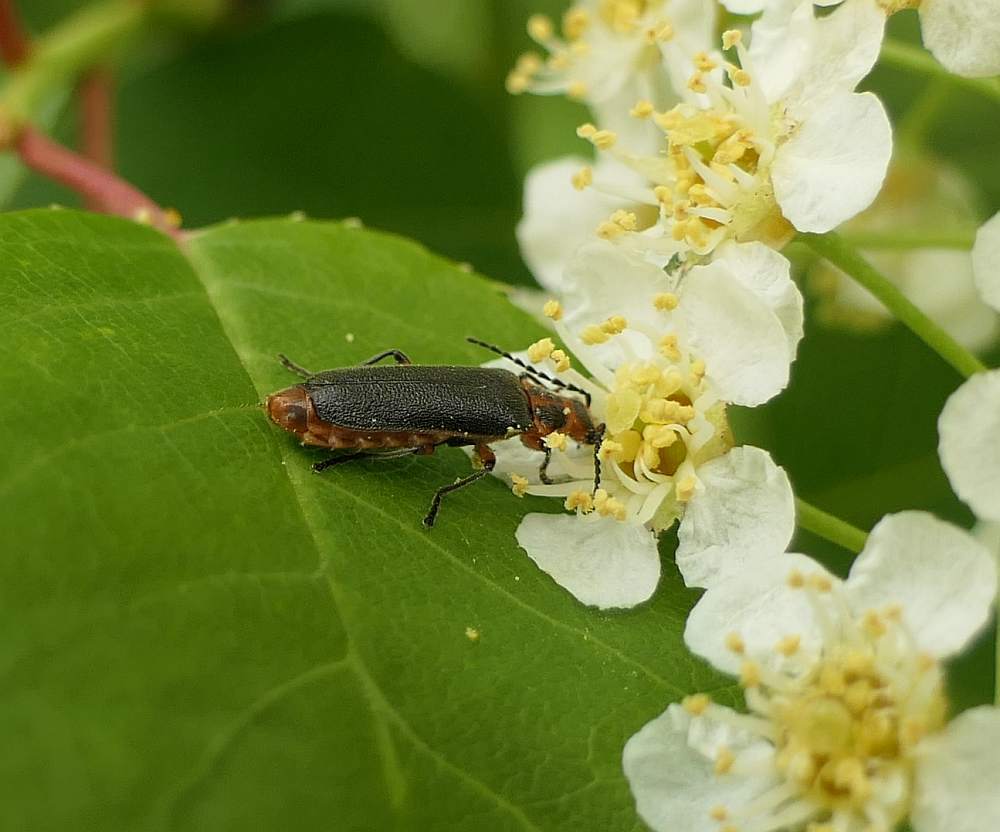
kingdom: Animalia
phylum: Arthropoda
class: Insecta
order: Coleoptera
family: Cantharidae
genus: Atalantycha
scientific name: Atalantycha bilineata
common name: Two-lined leatherwing
